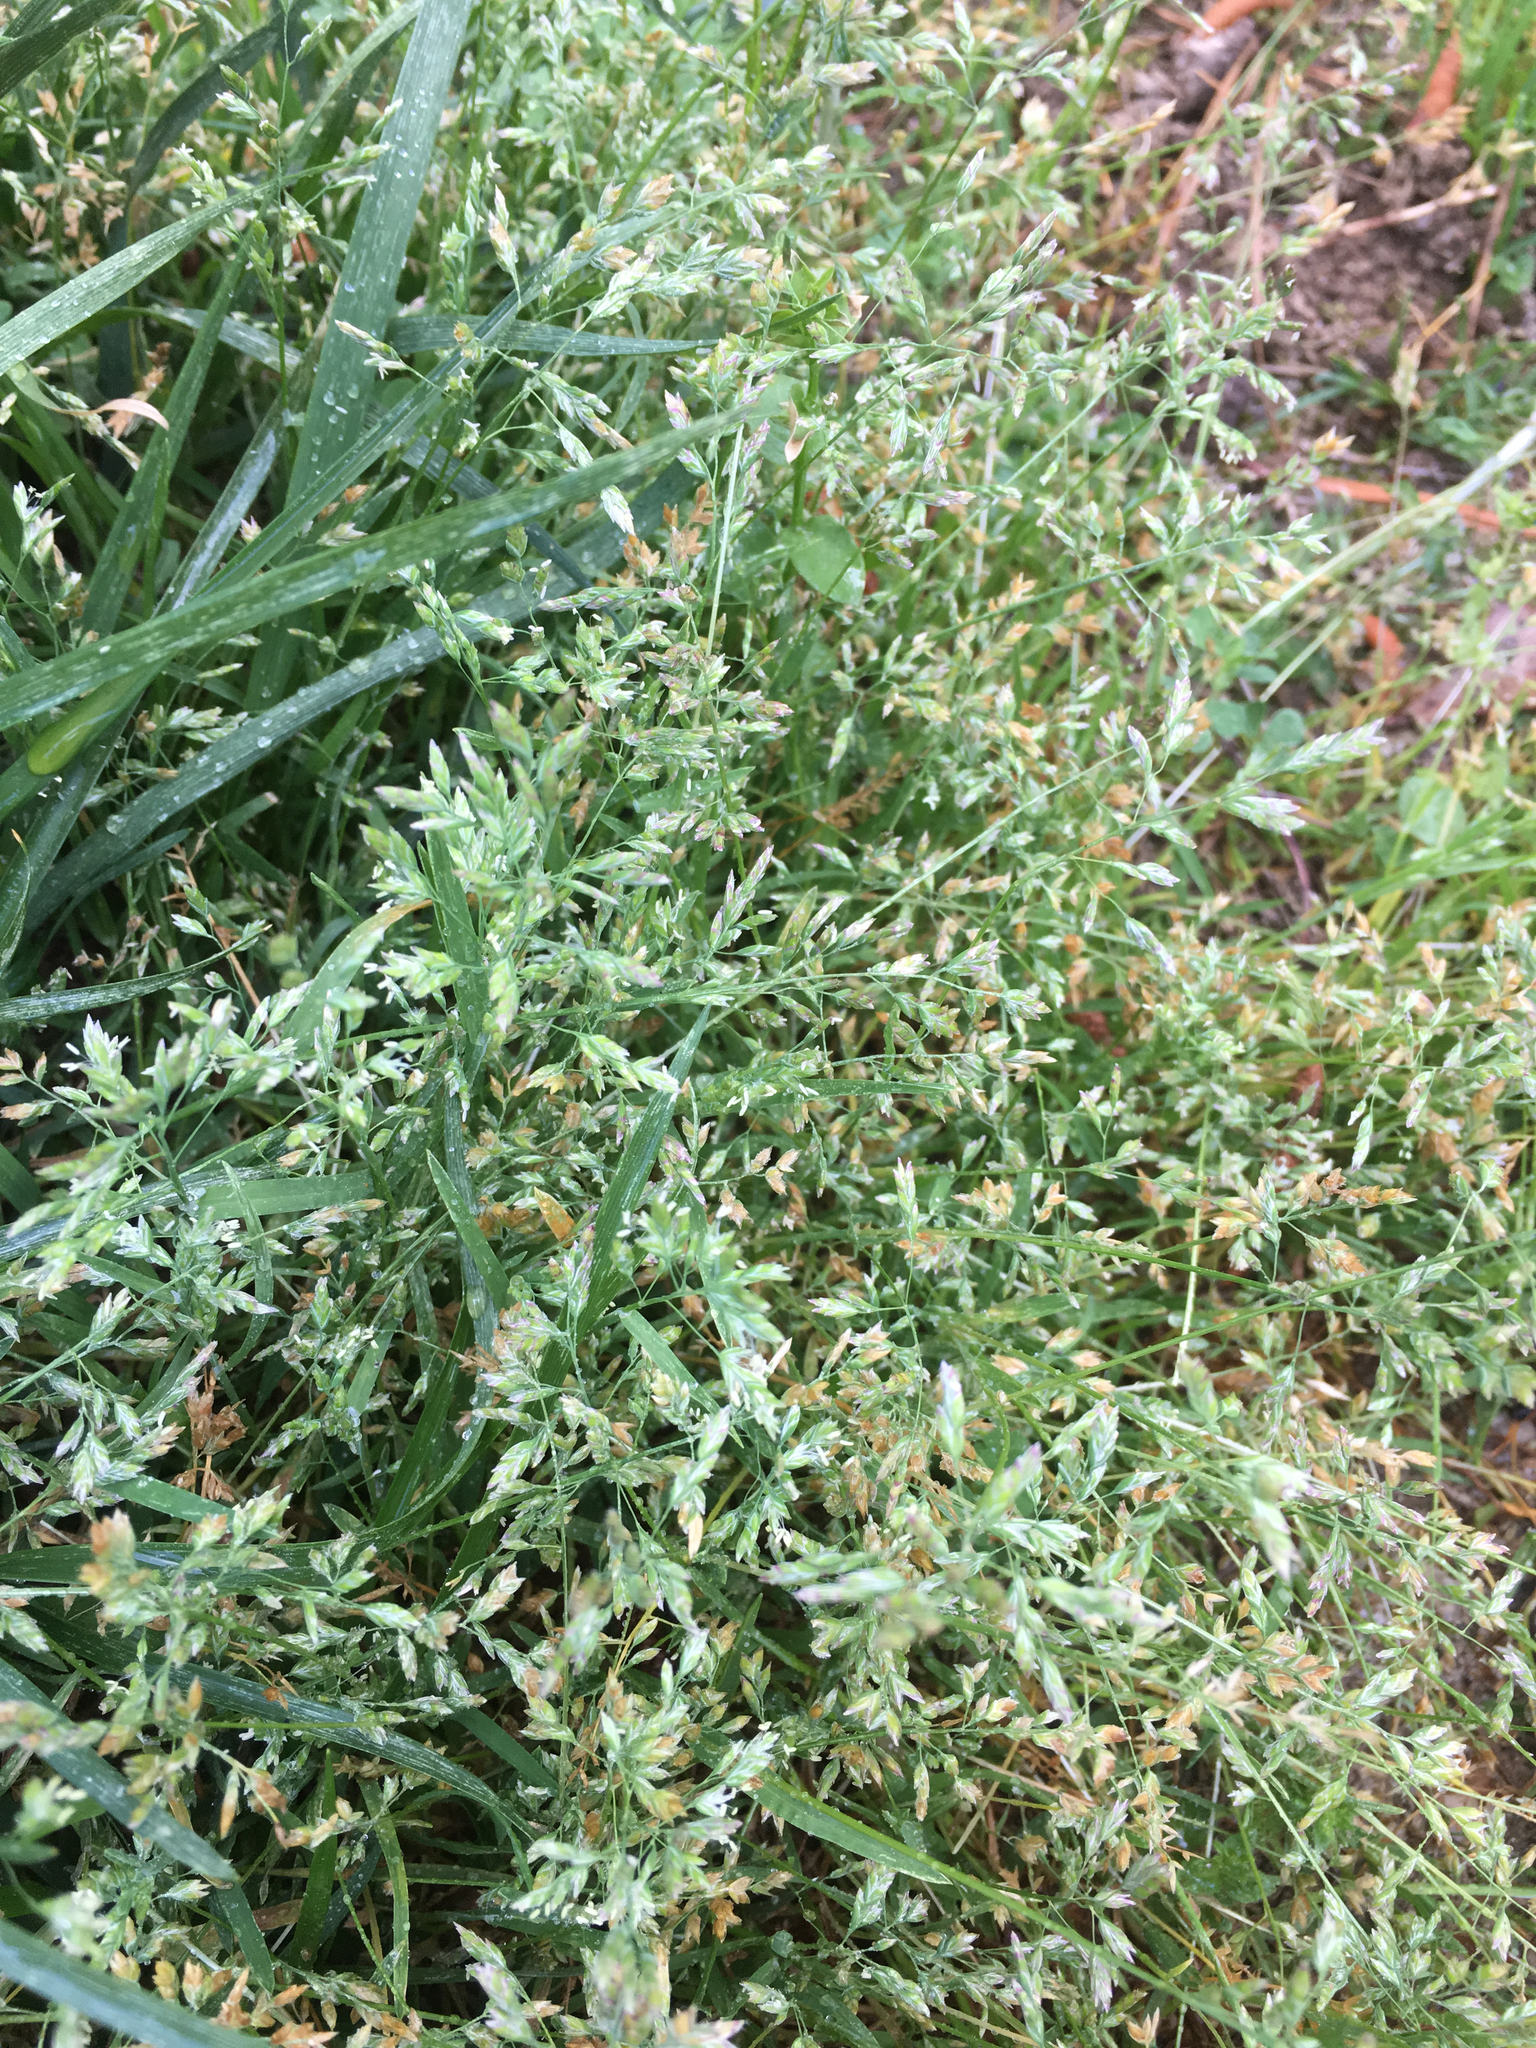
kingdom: Plantae
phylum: Tracheophyta
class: Liliopsida
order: Poales
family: Poaceae
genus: Poa
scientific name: Poa annua
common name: Annual bluegrass
